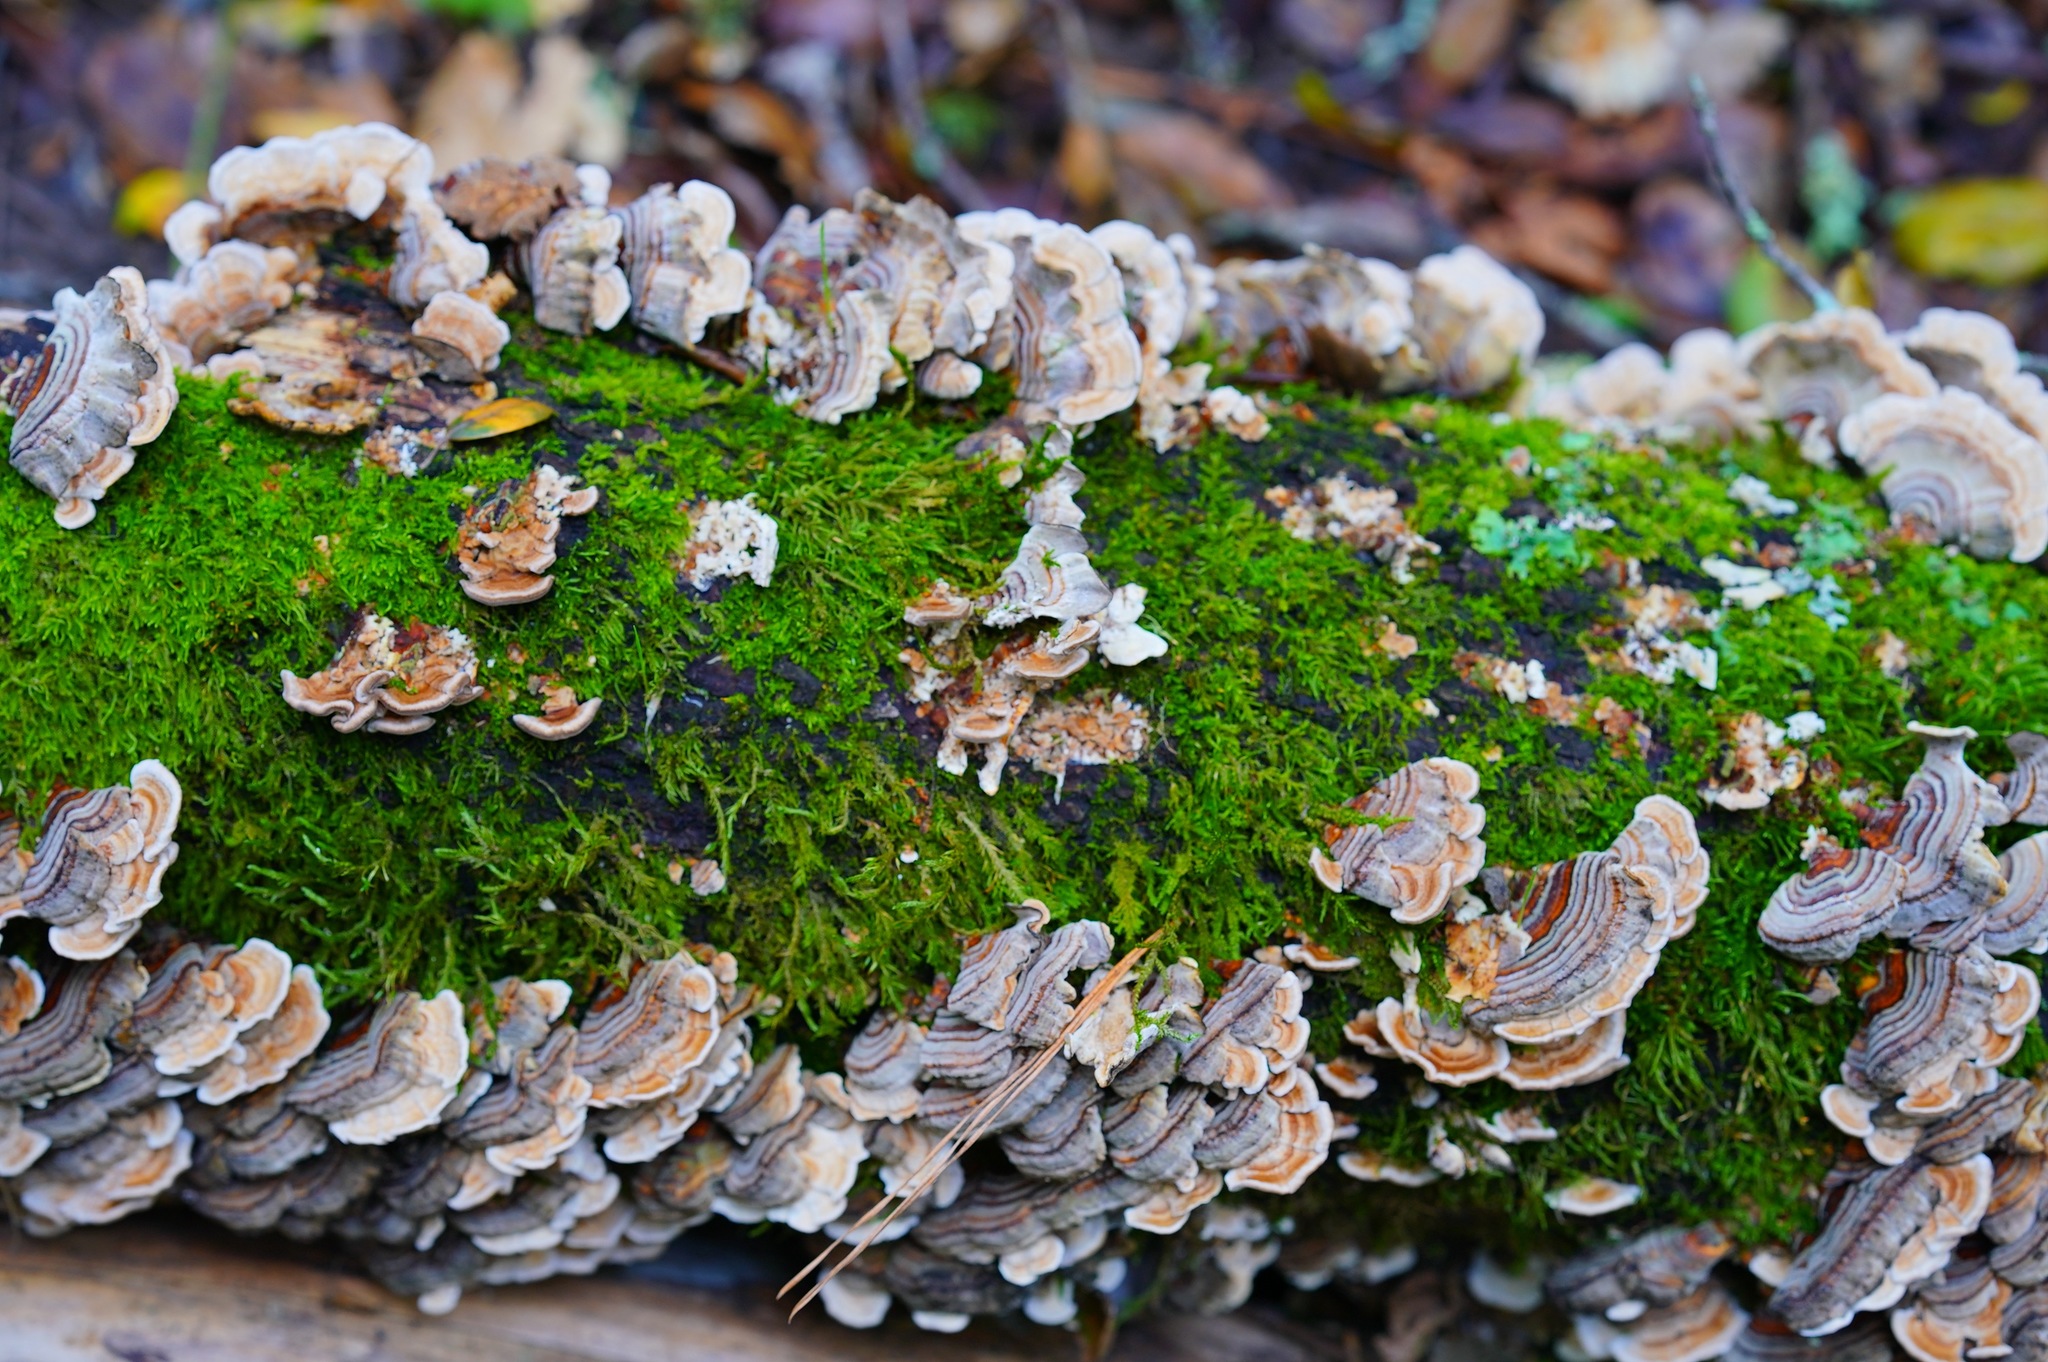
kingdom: Fungi
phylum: Basidiomycota
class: Agaricomycetes
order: Polyporales
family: Polyporaceae
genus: Trametes
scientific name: Trametes versicolor
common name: Turkeytail
